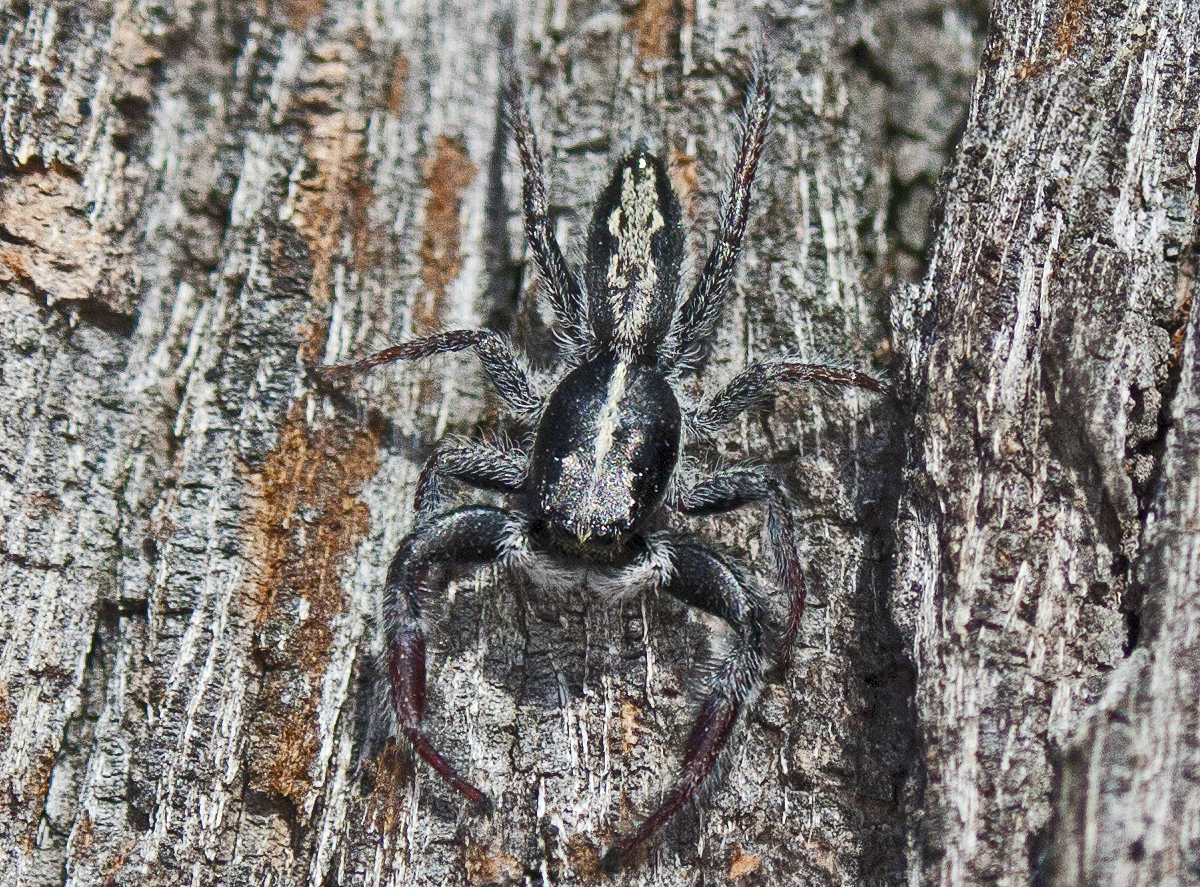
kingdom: Animalia
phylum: Arthropoda
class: Arachnida
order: Araneae
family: Salticidae
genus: Ocrisiona
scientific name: Ocrisiona leucocomis
